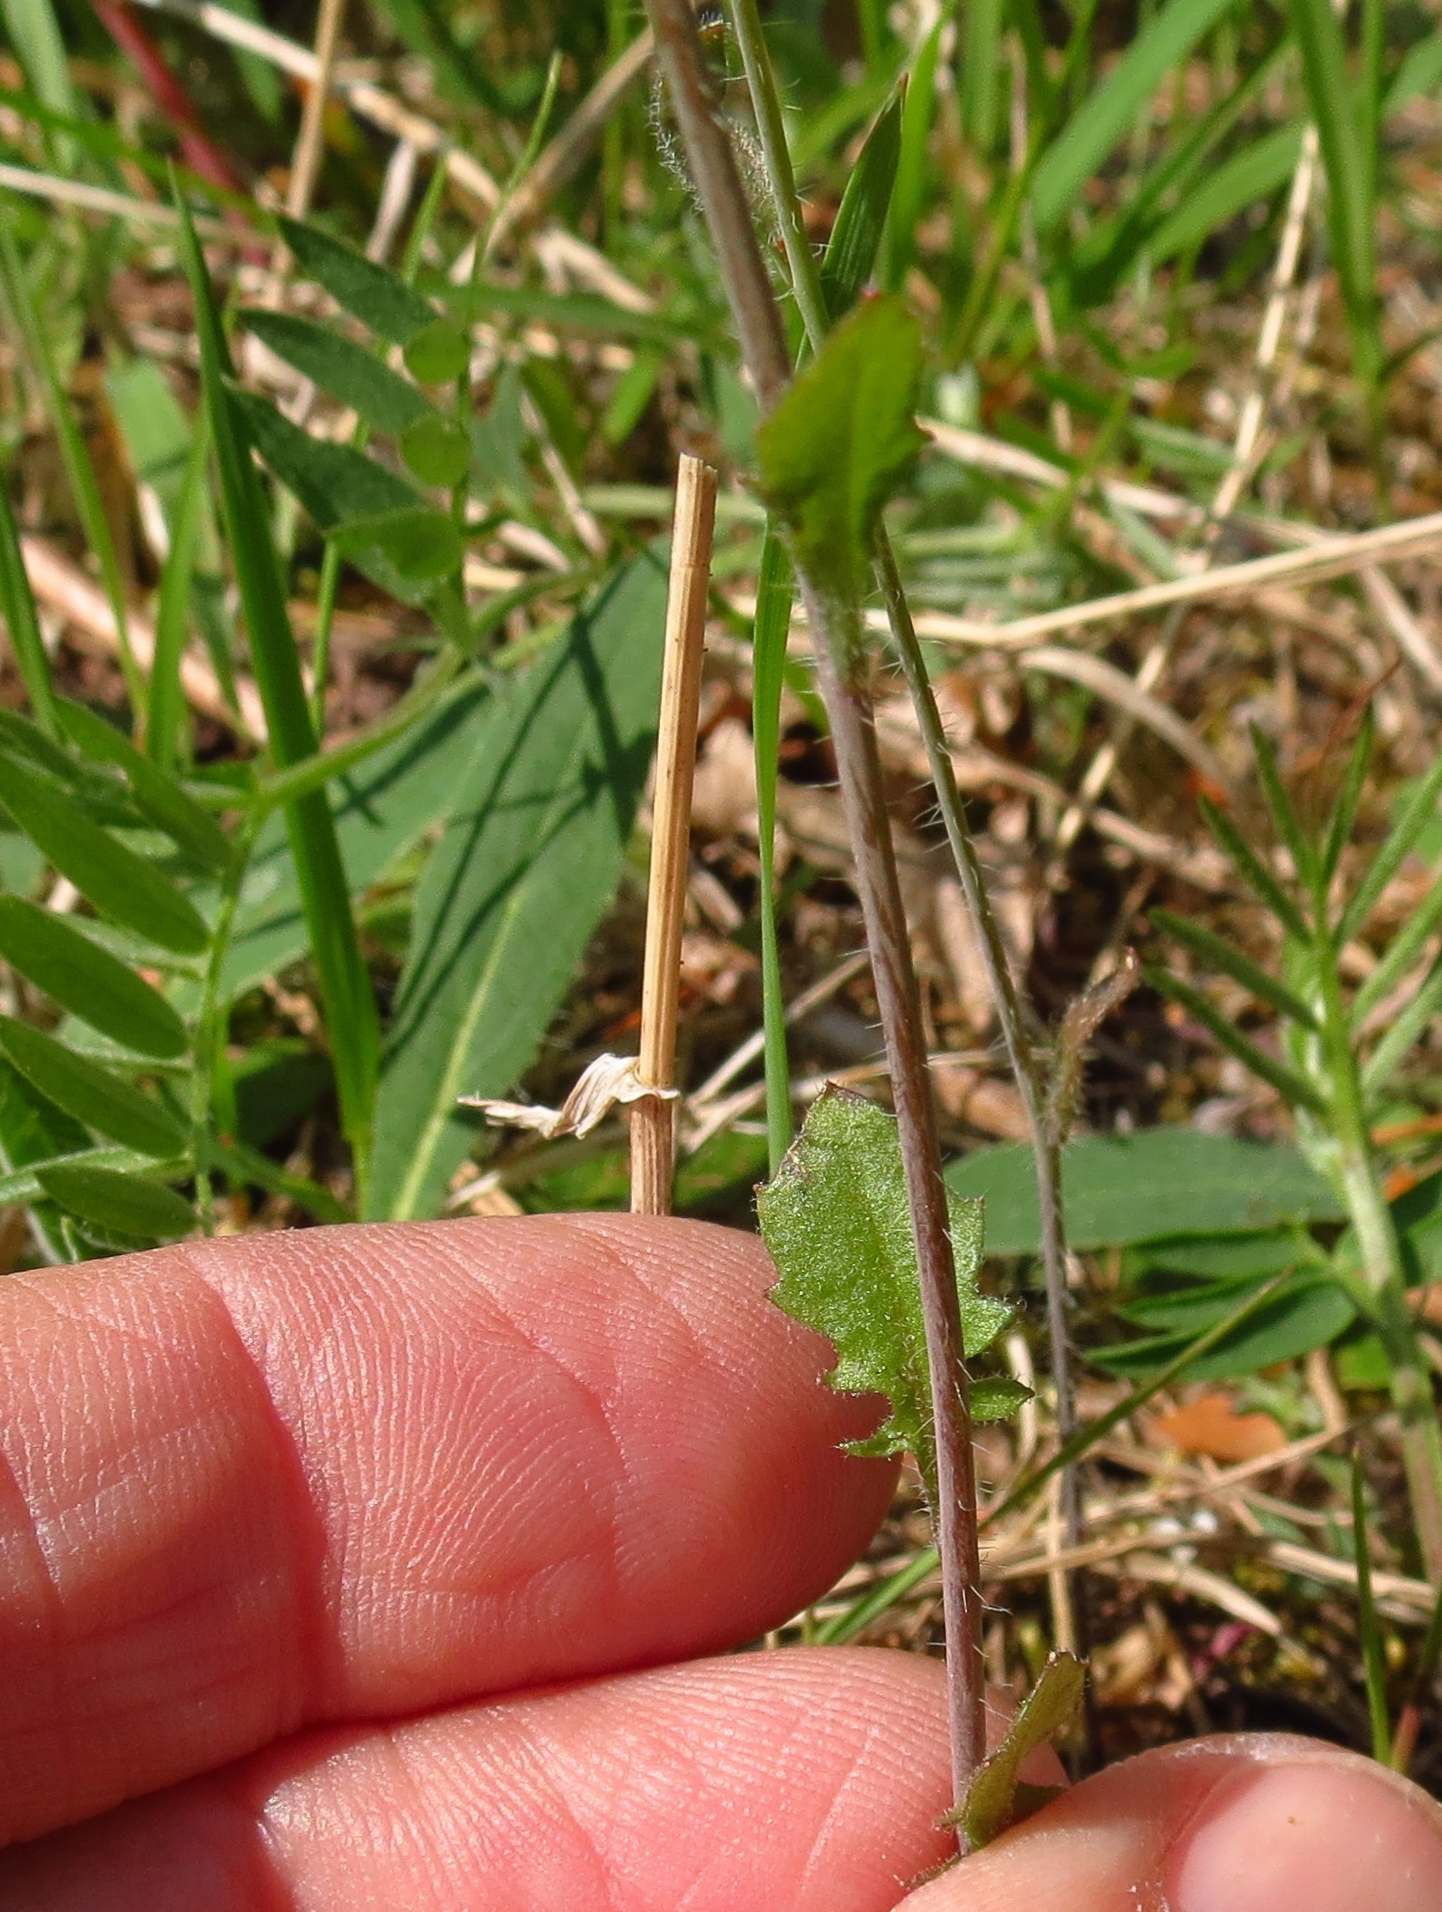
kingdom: Plantae
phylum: Tracheophyta
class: Magnoliopsida
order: Brassicales
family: Brassicaceae
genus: Arabidopsis
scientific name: Arabidopsis arenosa
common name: Sand rock-cress
